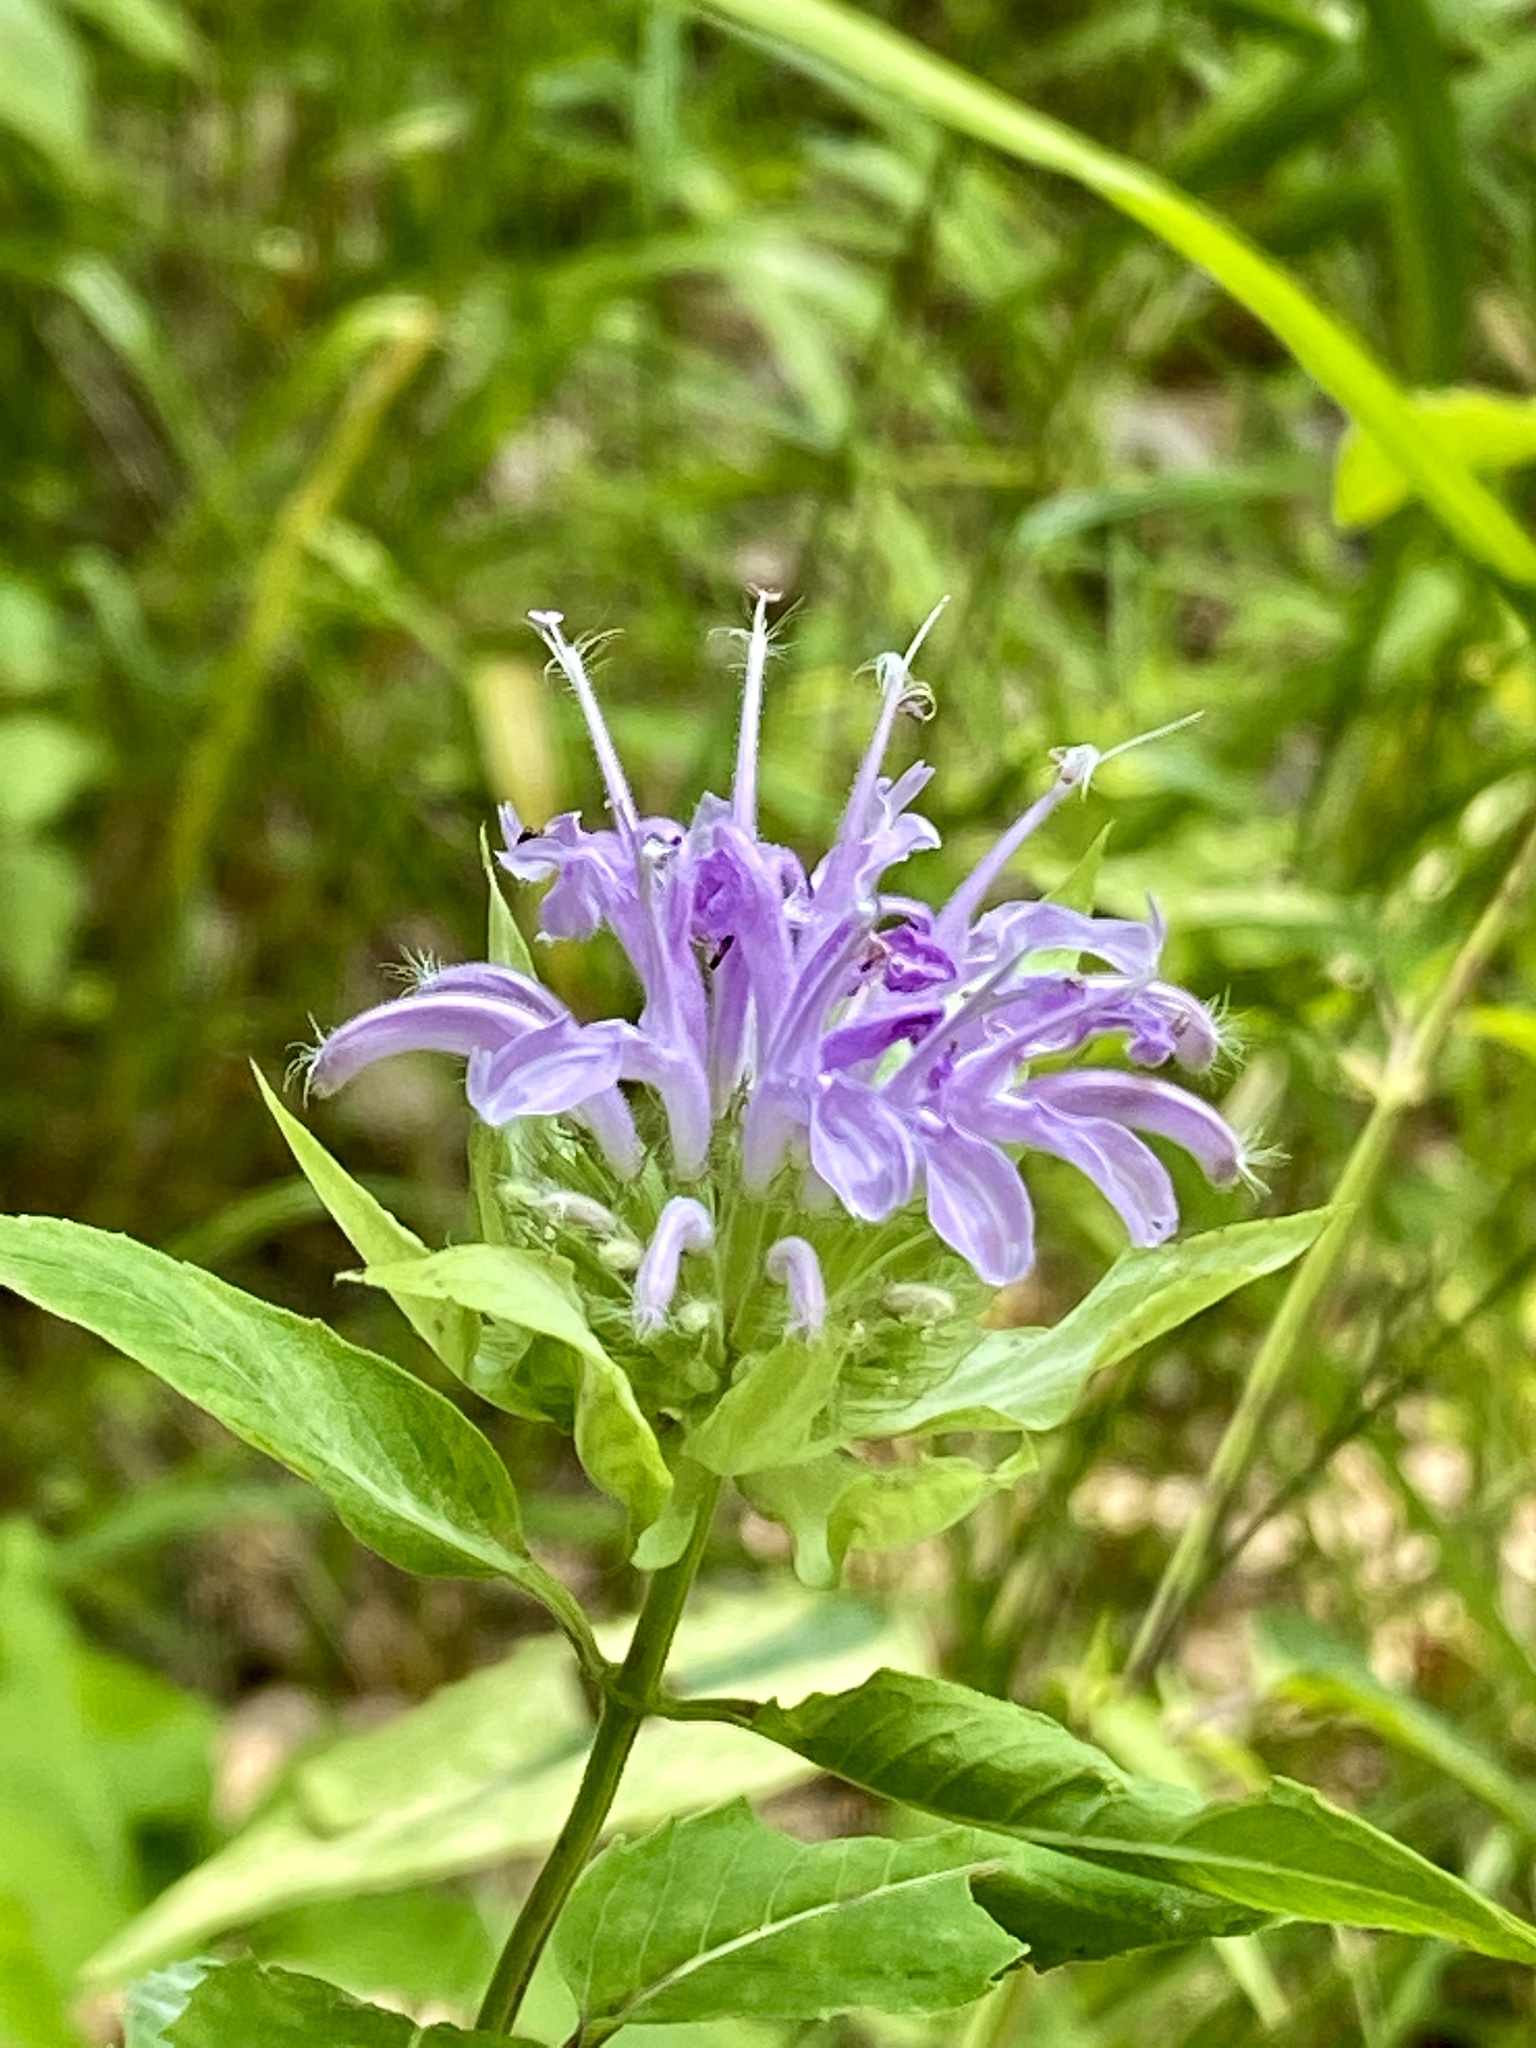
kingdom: Plantae
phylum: Tracheophyta
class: Magnoliopsida
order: Lamiales
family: Lamiaceae
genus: Monarda
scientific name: Monarda fistulosa
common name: Purple beebalm
